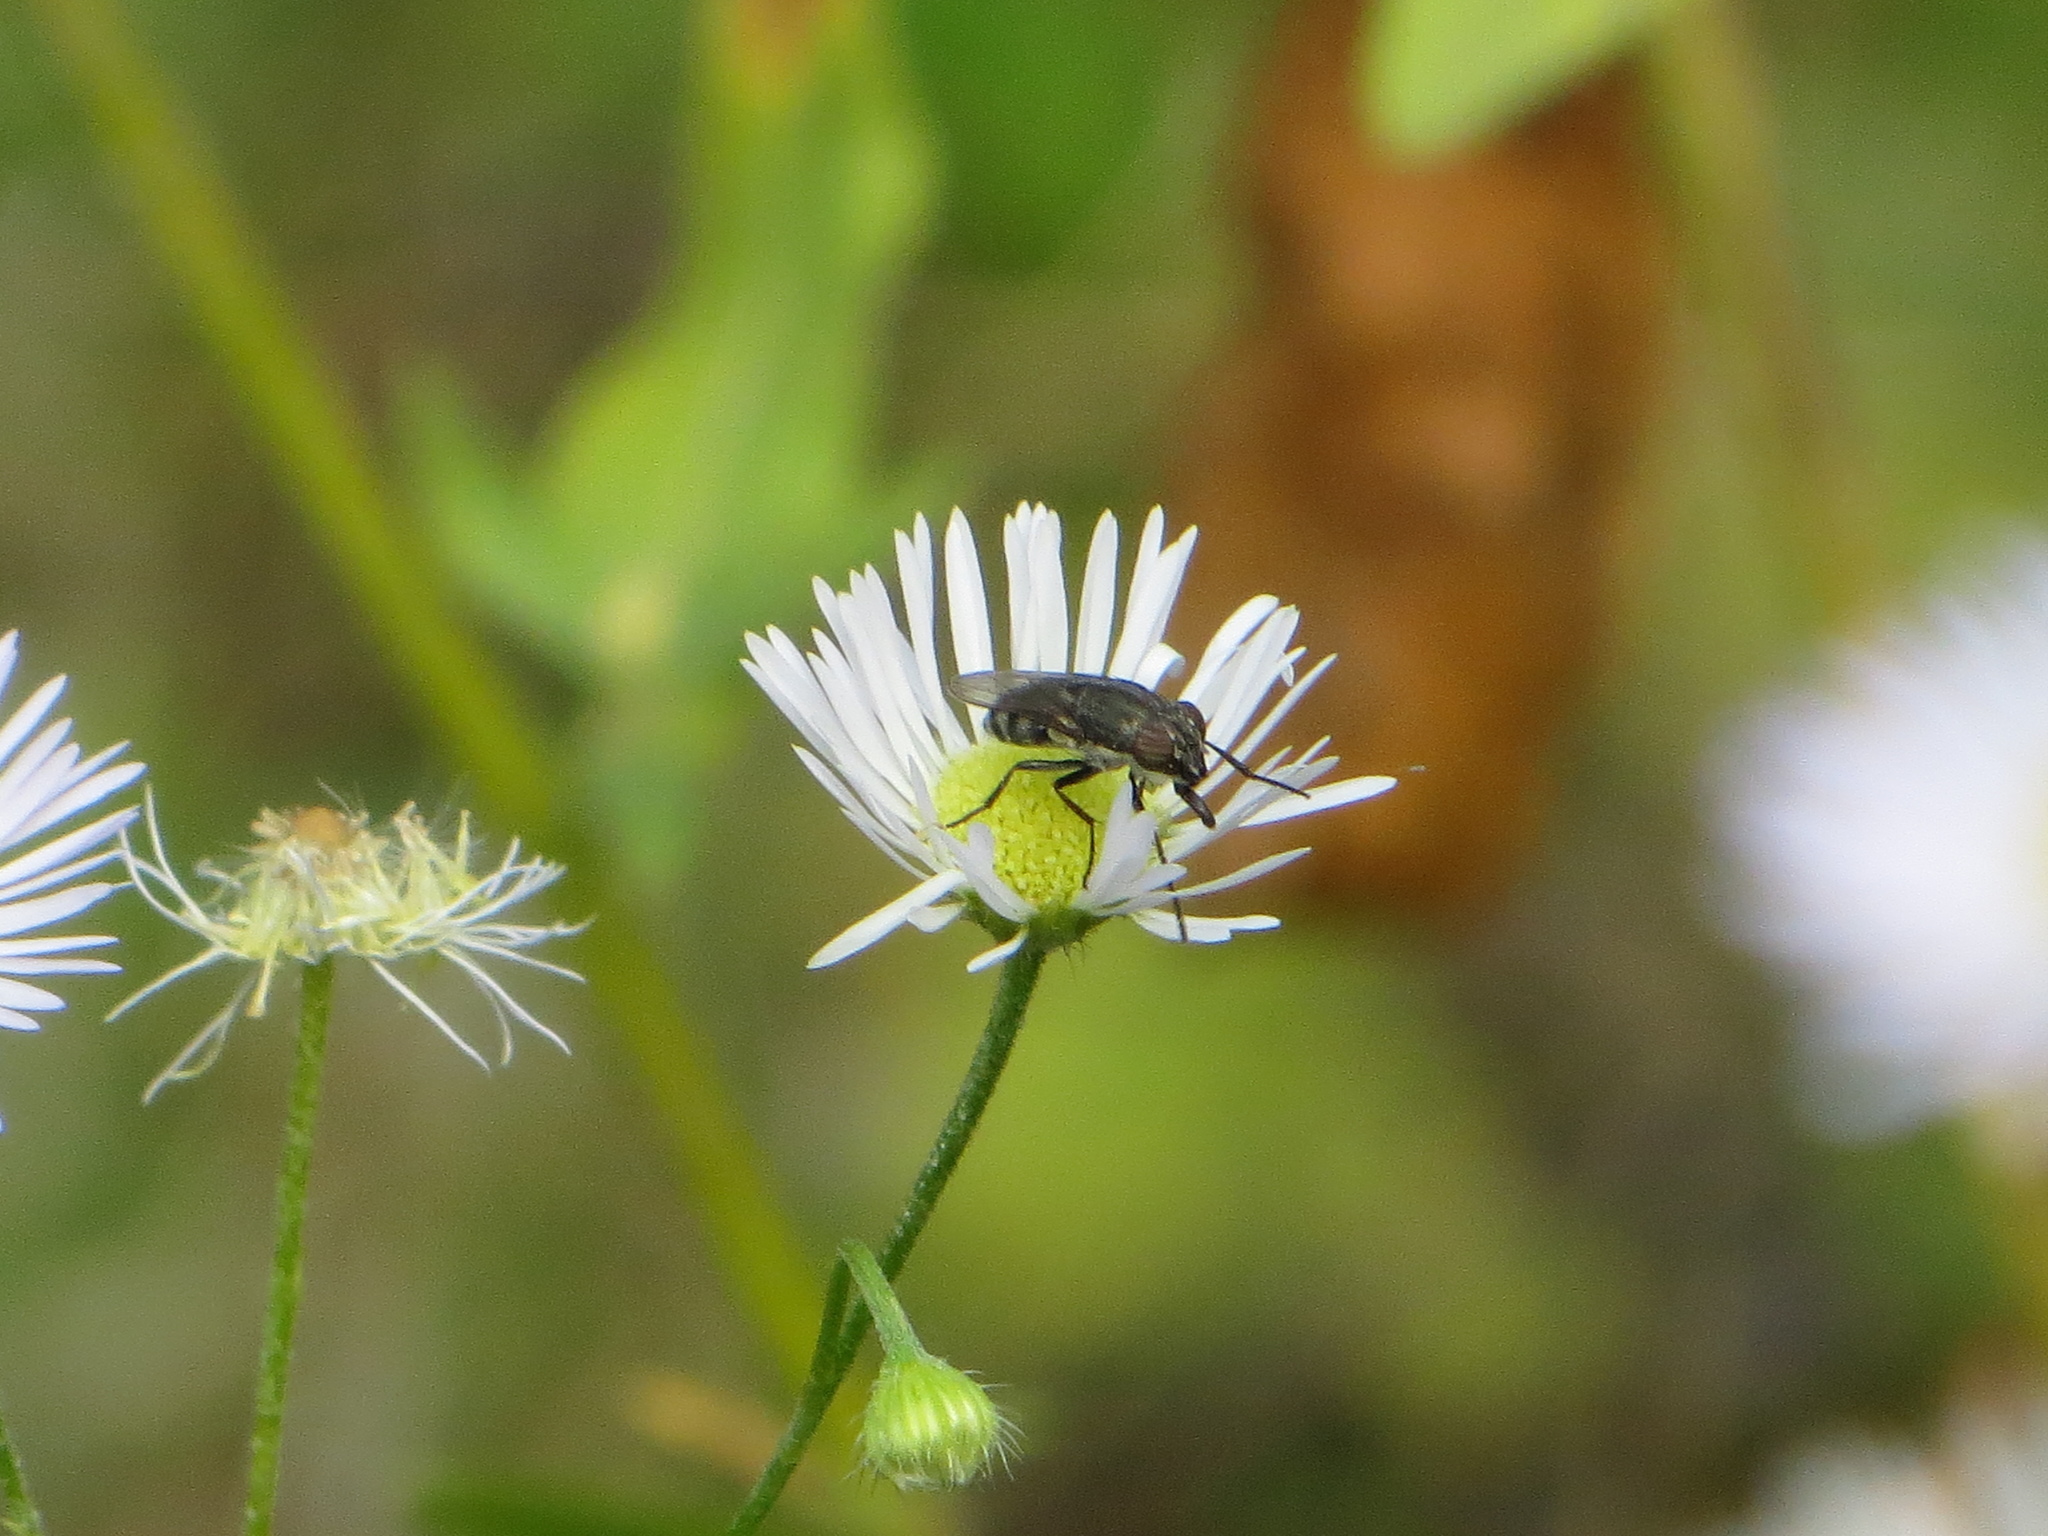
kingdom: Animalia
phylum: Arthropoda
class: Insecta
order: Diptera
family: Calliphoridae
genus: Stomorhina
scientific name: Stomorhina lunata
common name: Locust blowfly
